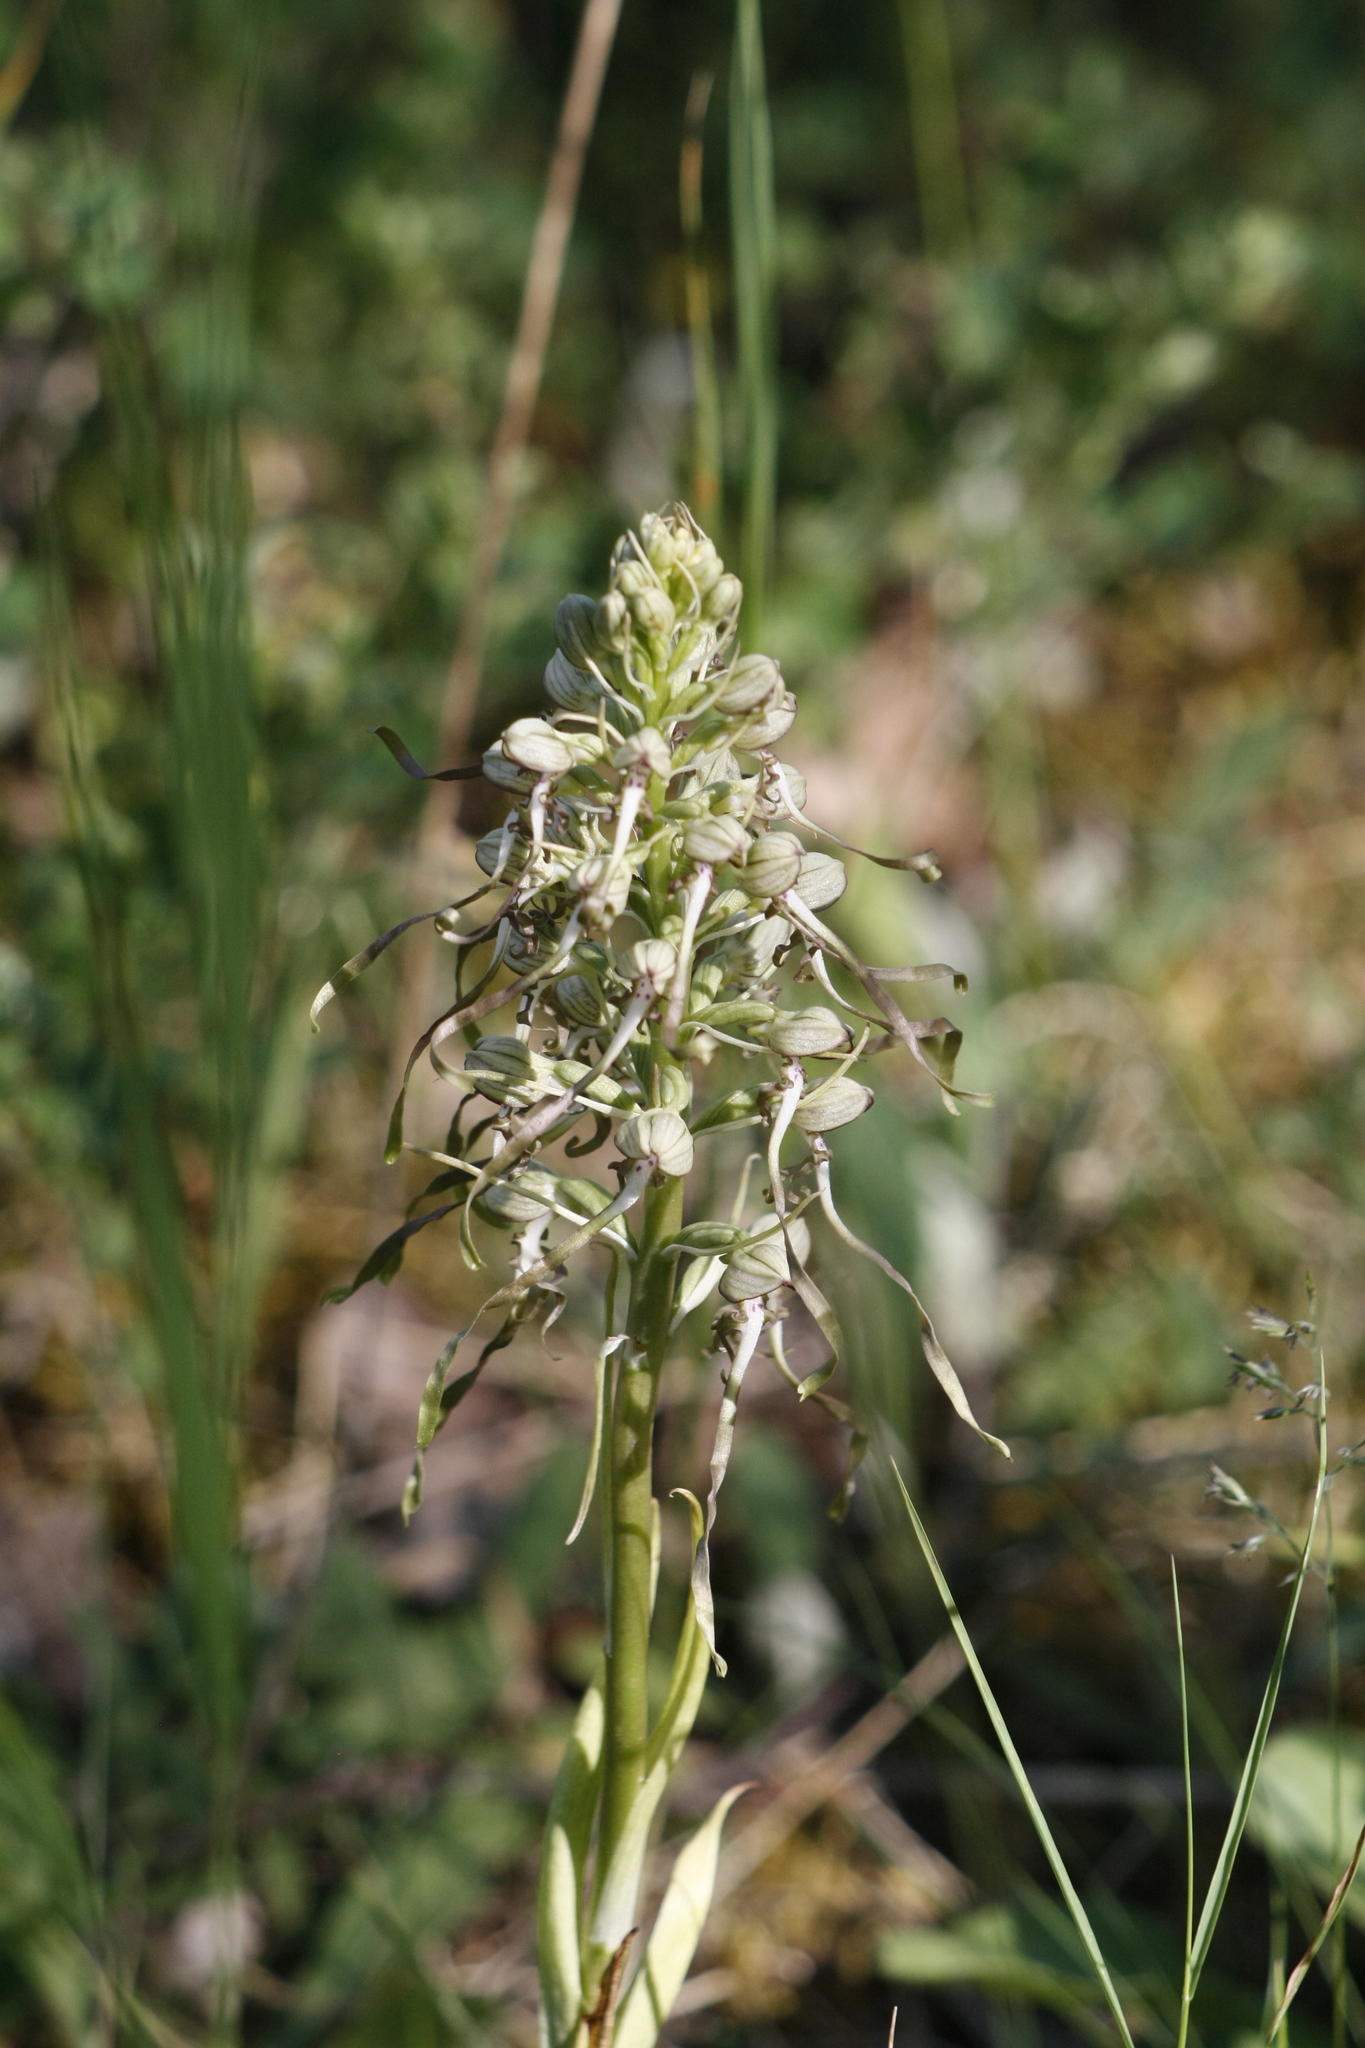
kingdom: Plantae
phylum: Tracheophyta
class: Liliopsida
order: Asparagales
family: Orchidaceae
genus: Himantoglossum
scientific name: Himantoglossum hircinum
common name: Lizard orchid
